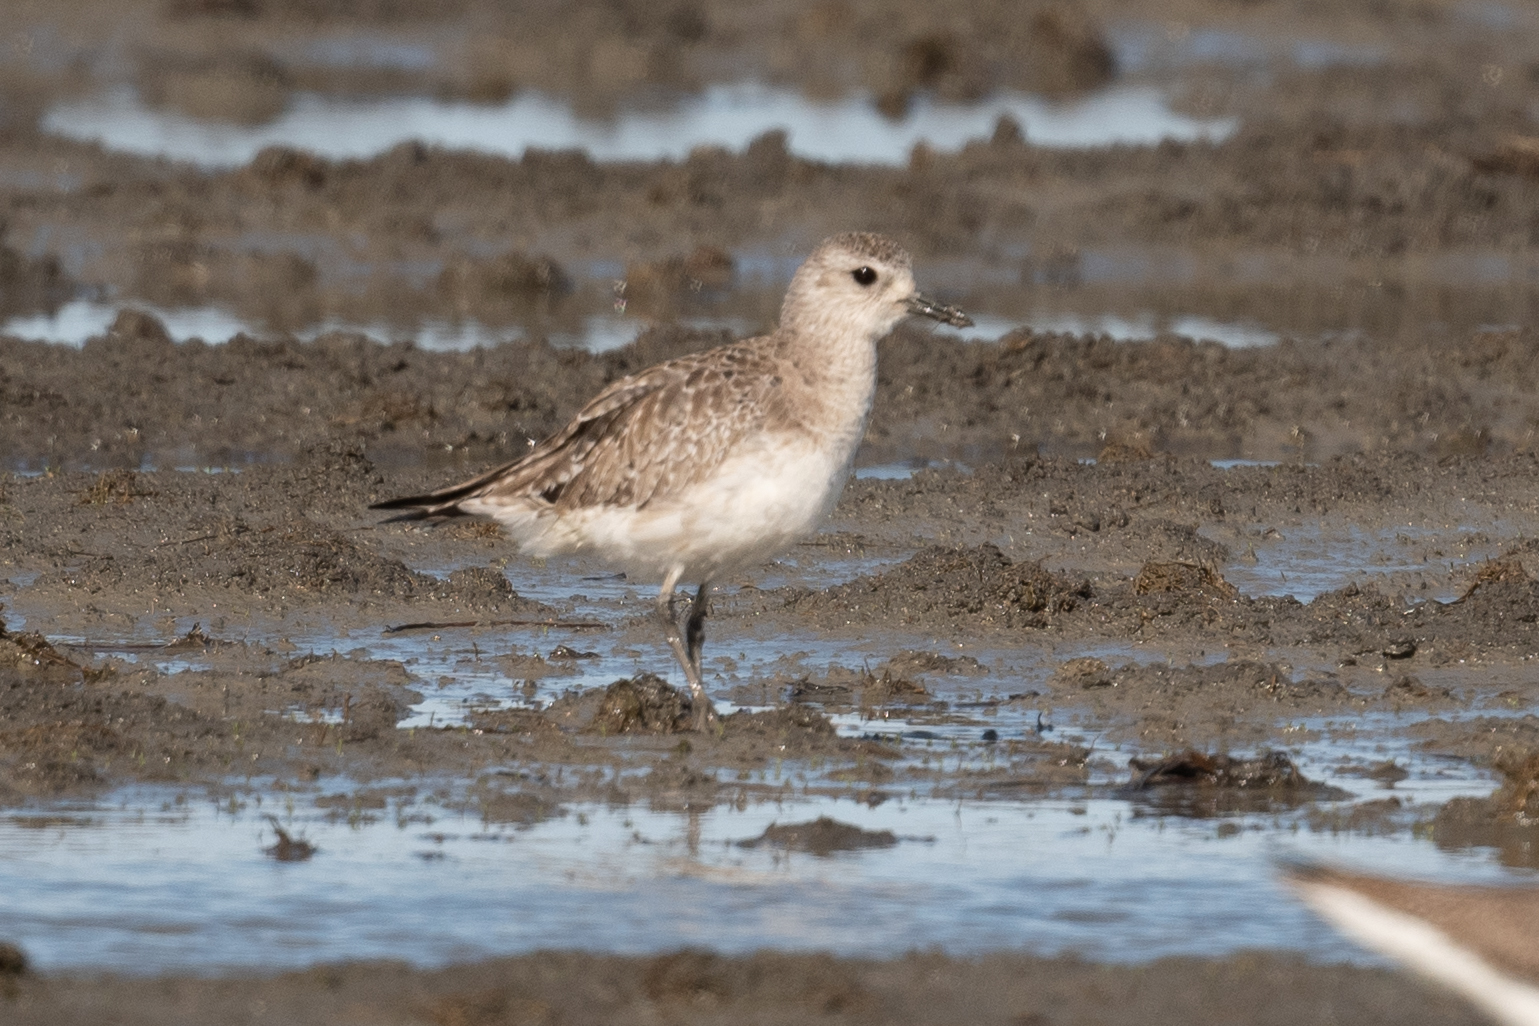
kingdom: Animalia
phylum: Chordata
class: Aves
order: Charadriiformes
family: Charadriidae
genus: Pluvialis
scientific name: Pluvialis squatarola
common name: Grey plover
